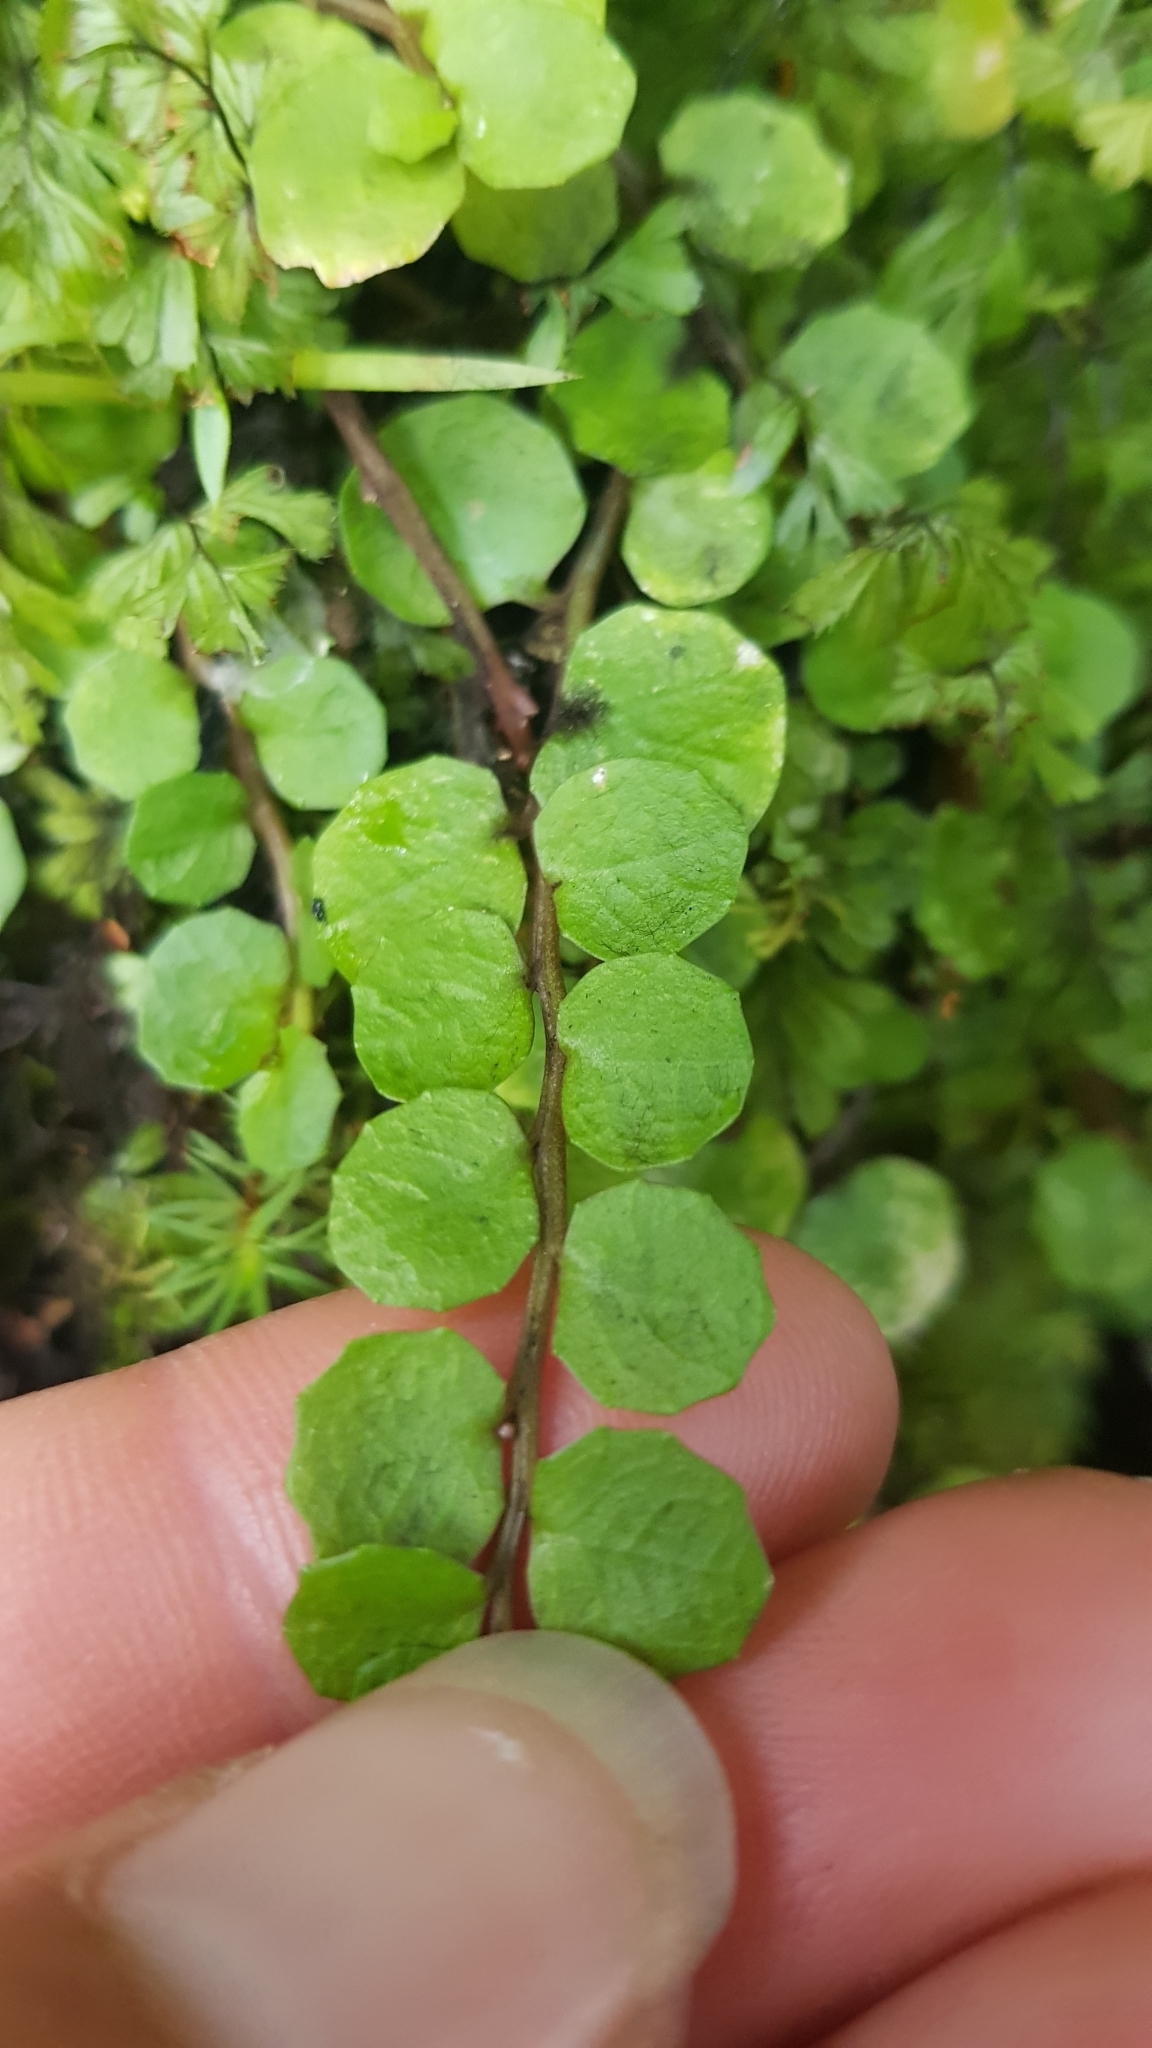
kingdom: Plantae
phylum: Tracheophyta
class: Magnoliopsida
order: Asterales
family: Campanulaceae
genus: Lobelia
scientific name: Lobelia angulata
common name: Lawn lobelia
